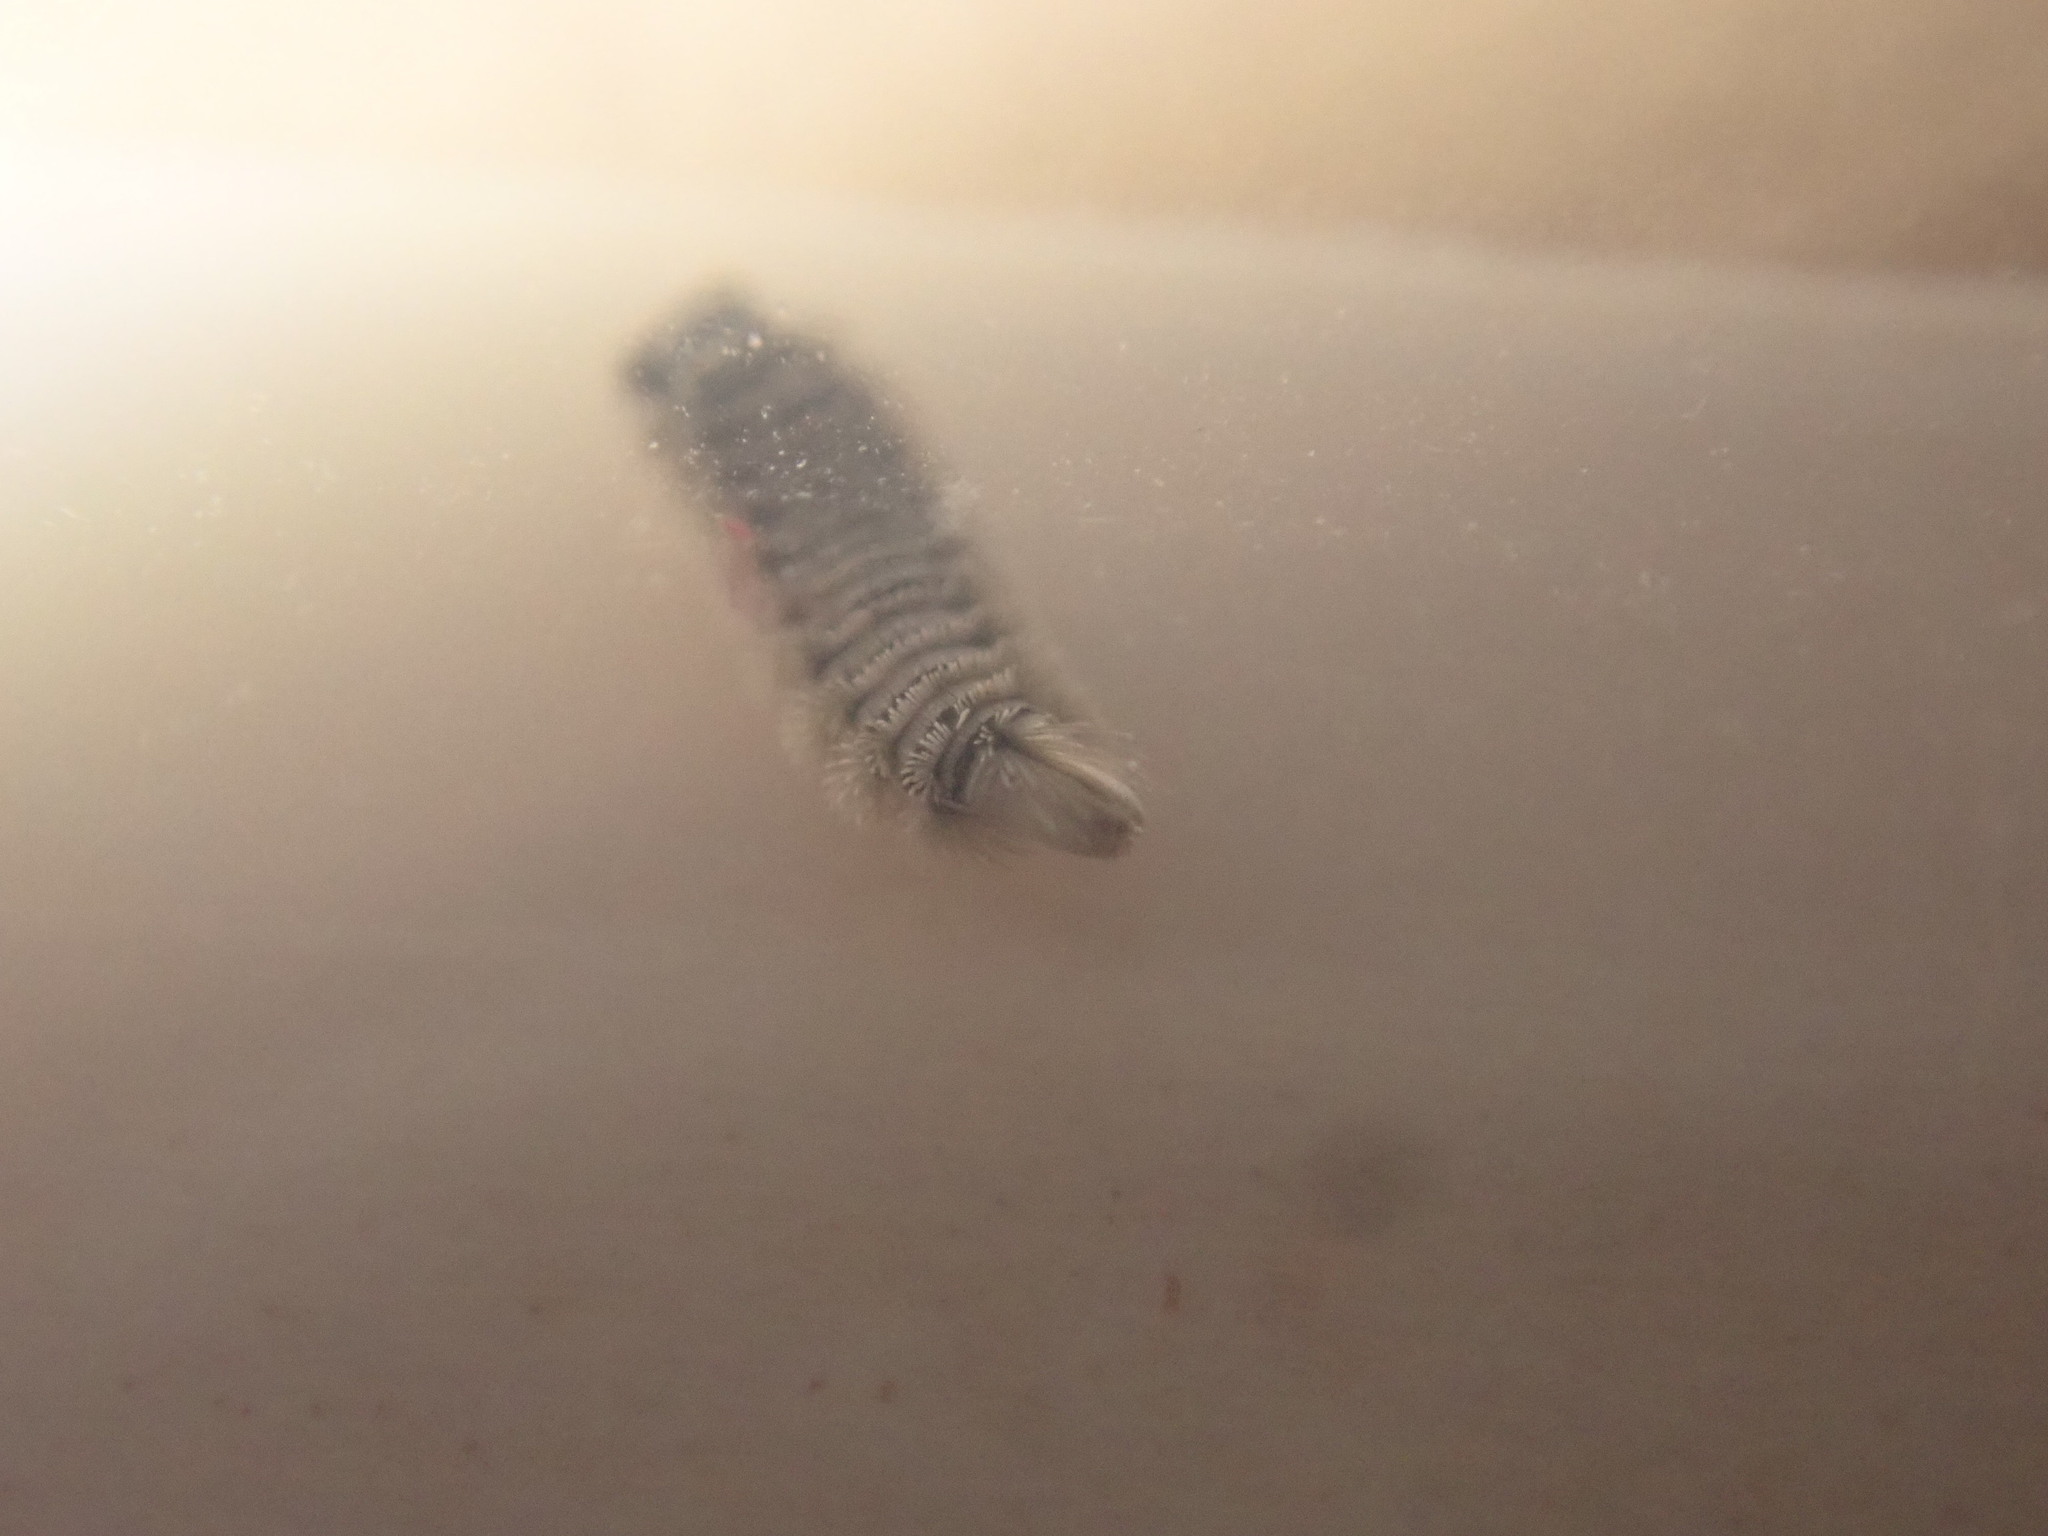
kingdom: Animalia
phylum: Arthropoda
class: Diplopoda
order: Polyxenida
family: Polyxenidae
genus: Polyxenus
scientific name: Polyxenus lagurus
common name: Bristly millipede
